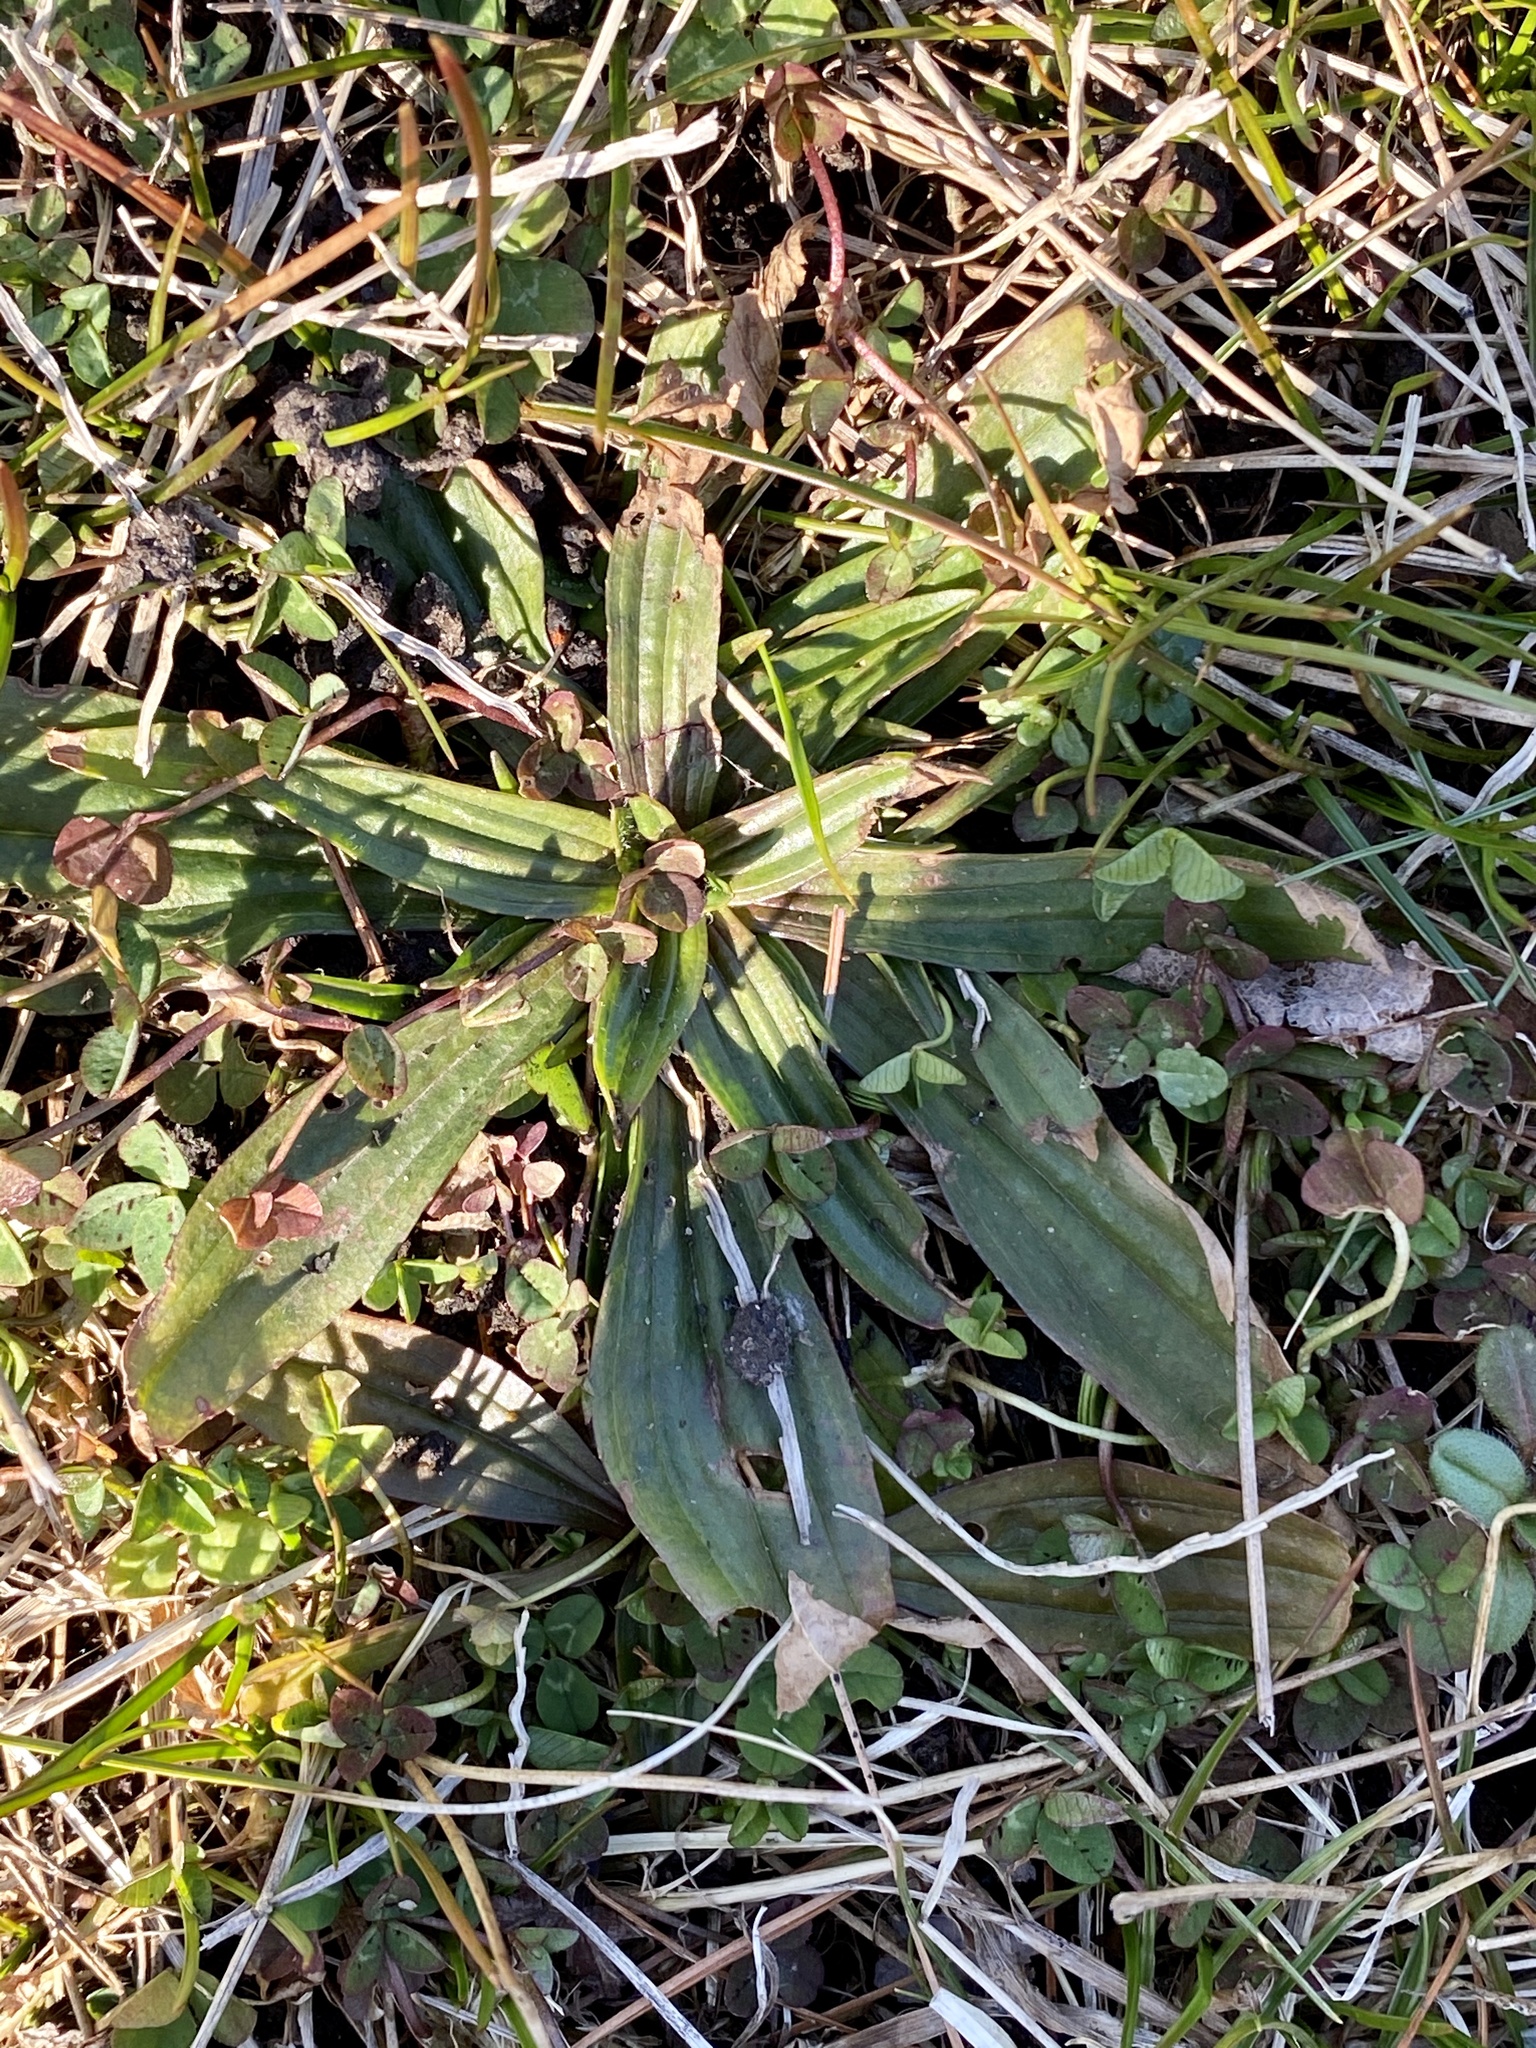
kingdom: Plantae
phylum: Tracheophyta
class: Magnoliopsida
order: Lamiales
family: Plantaginaceae
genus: Plantago
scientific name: Plantago lanceolata
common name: Ribwort plantain
